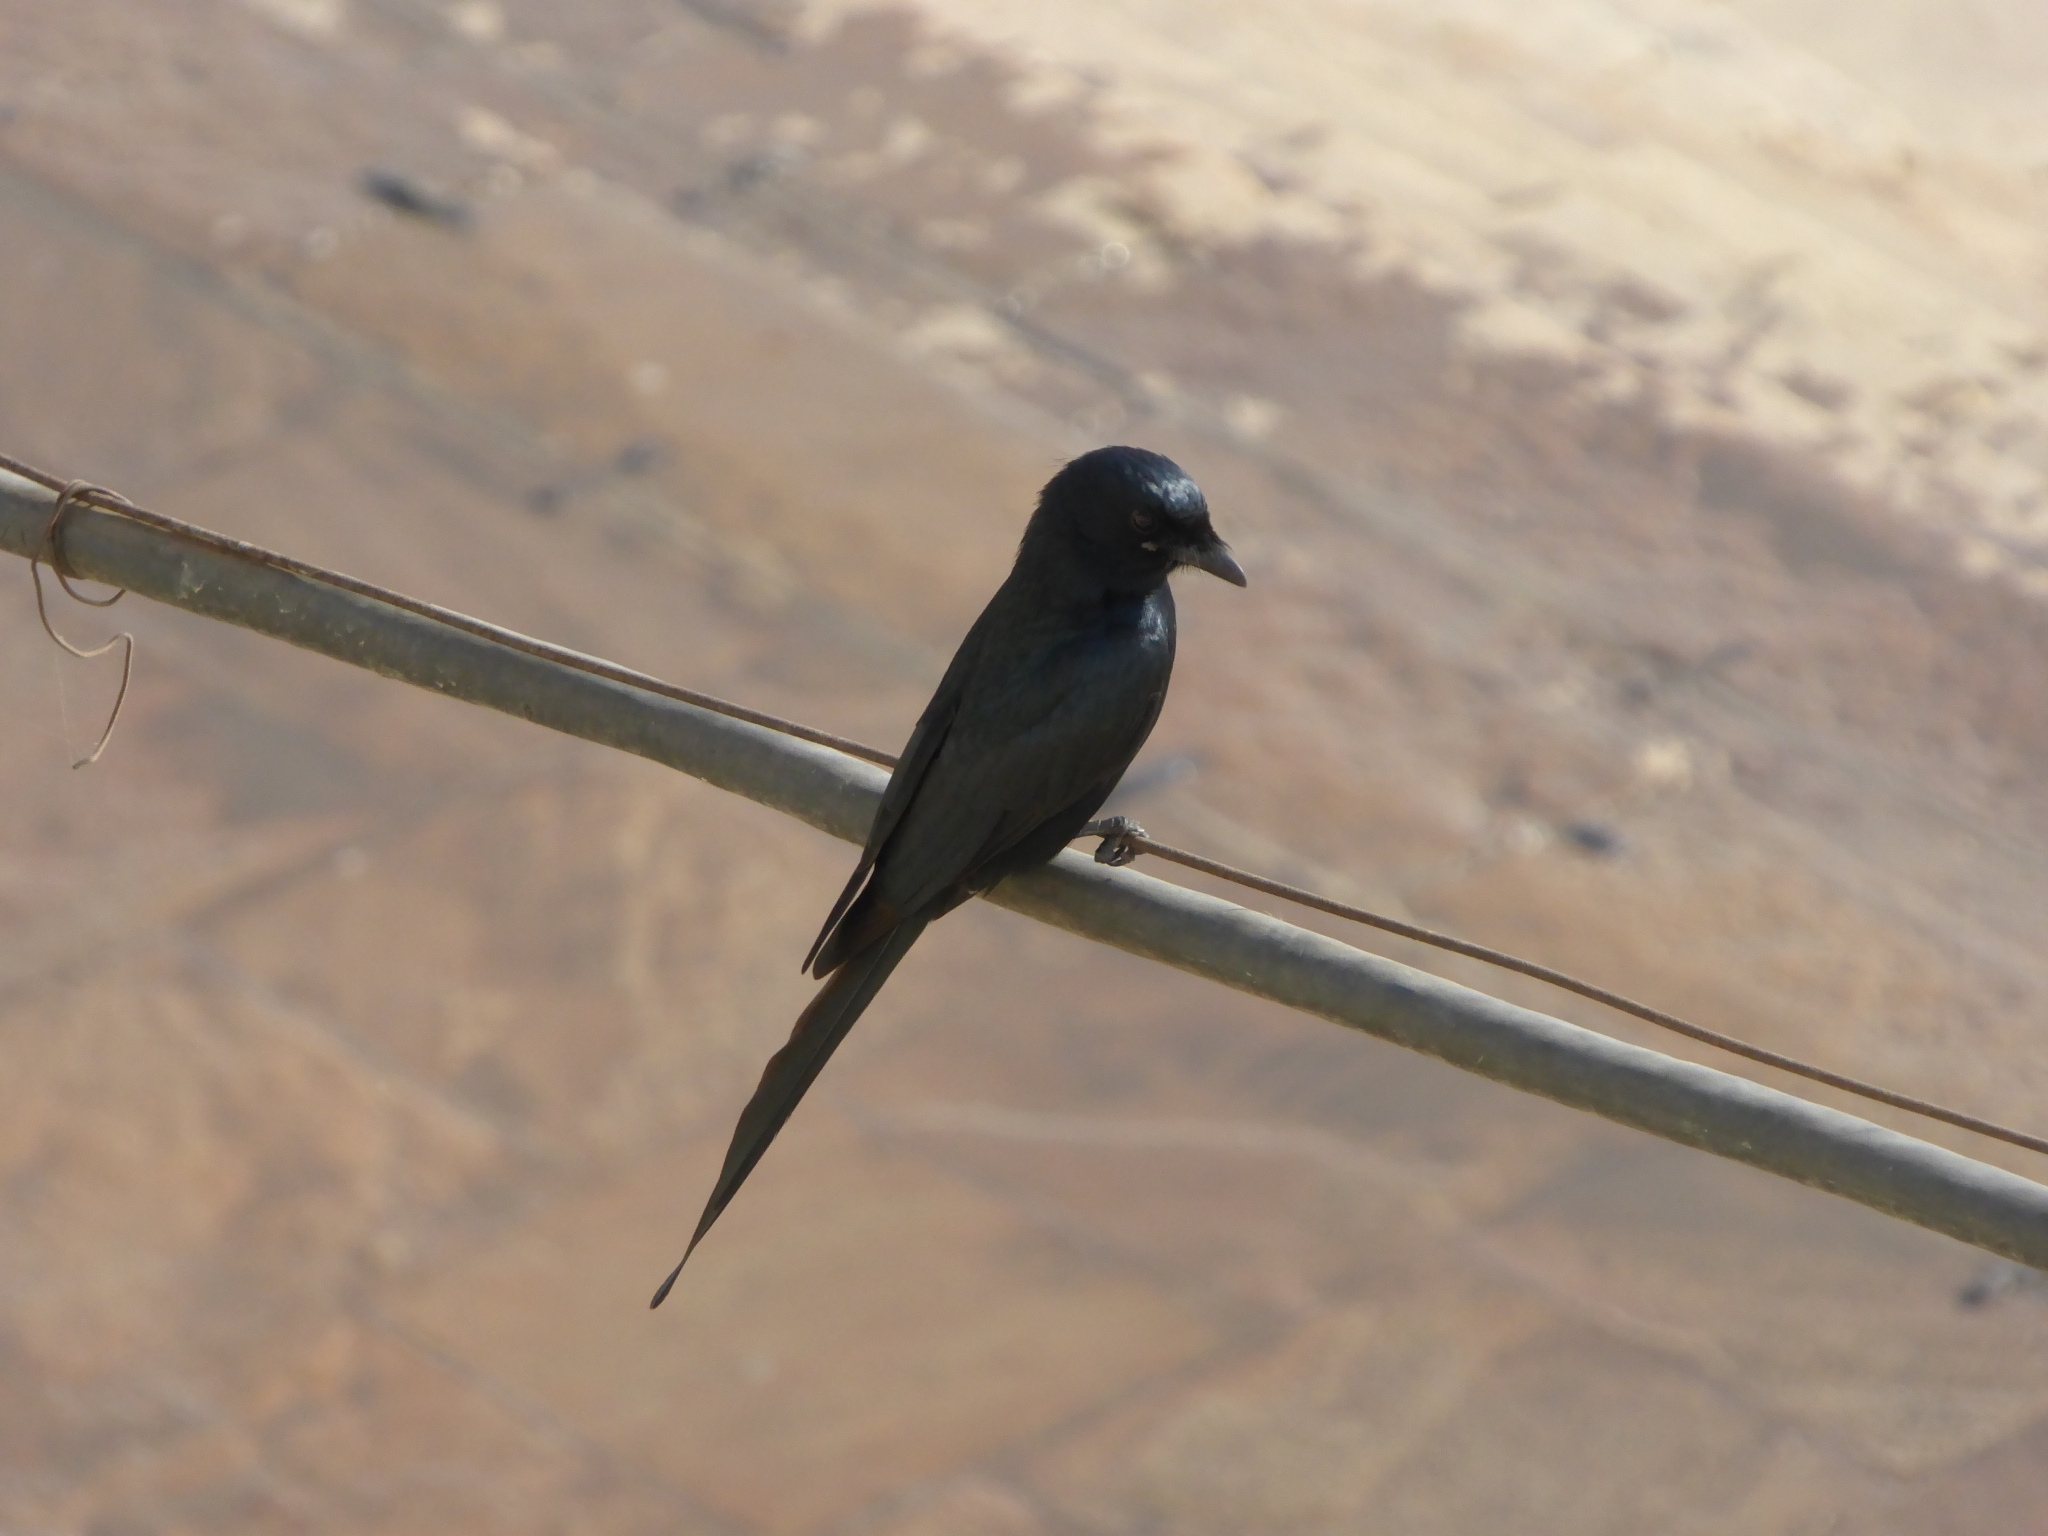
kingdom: Animalia
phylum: Chordata
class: Aves
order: Passeriformes
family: Dicruridae
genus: Dicrurus
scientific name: Dicrurus macrocercus
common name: Black drongo
